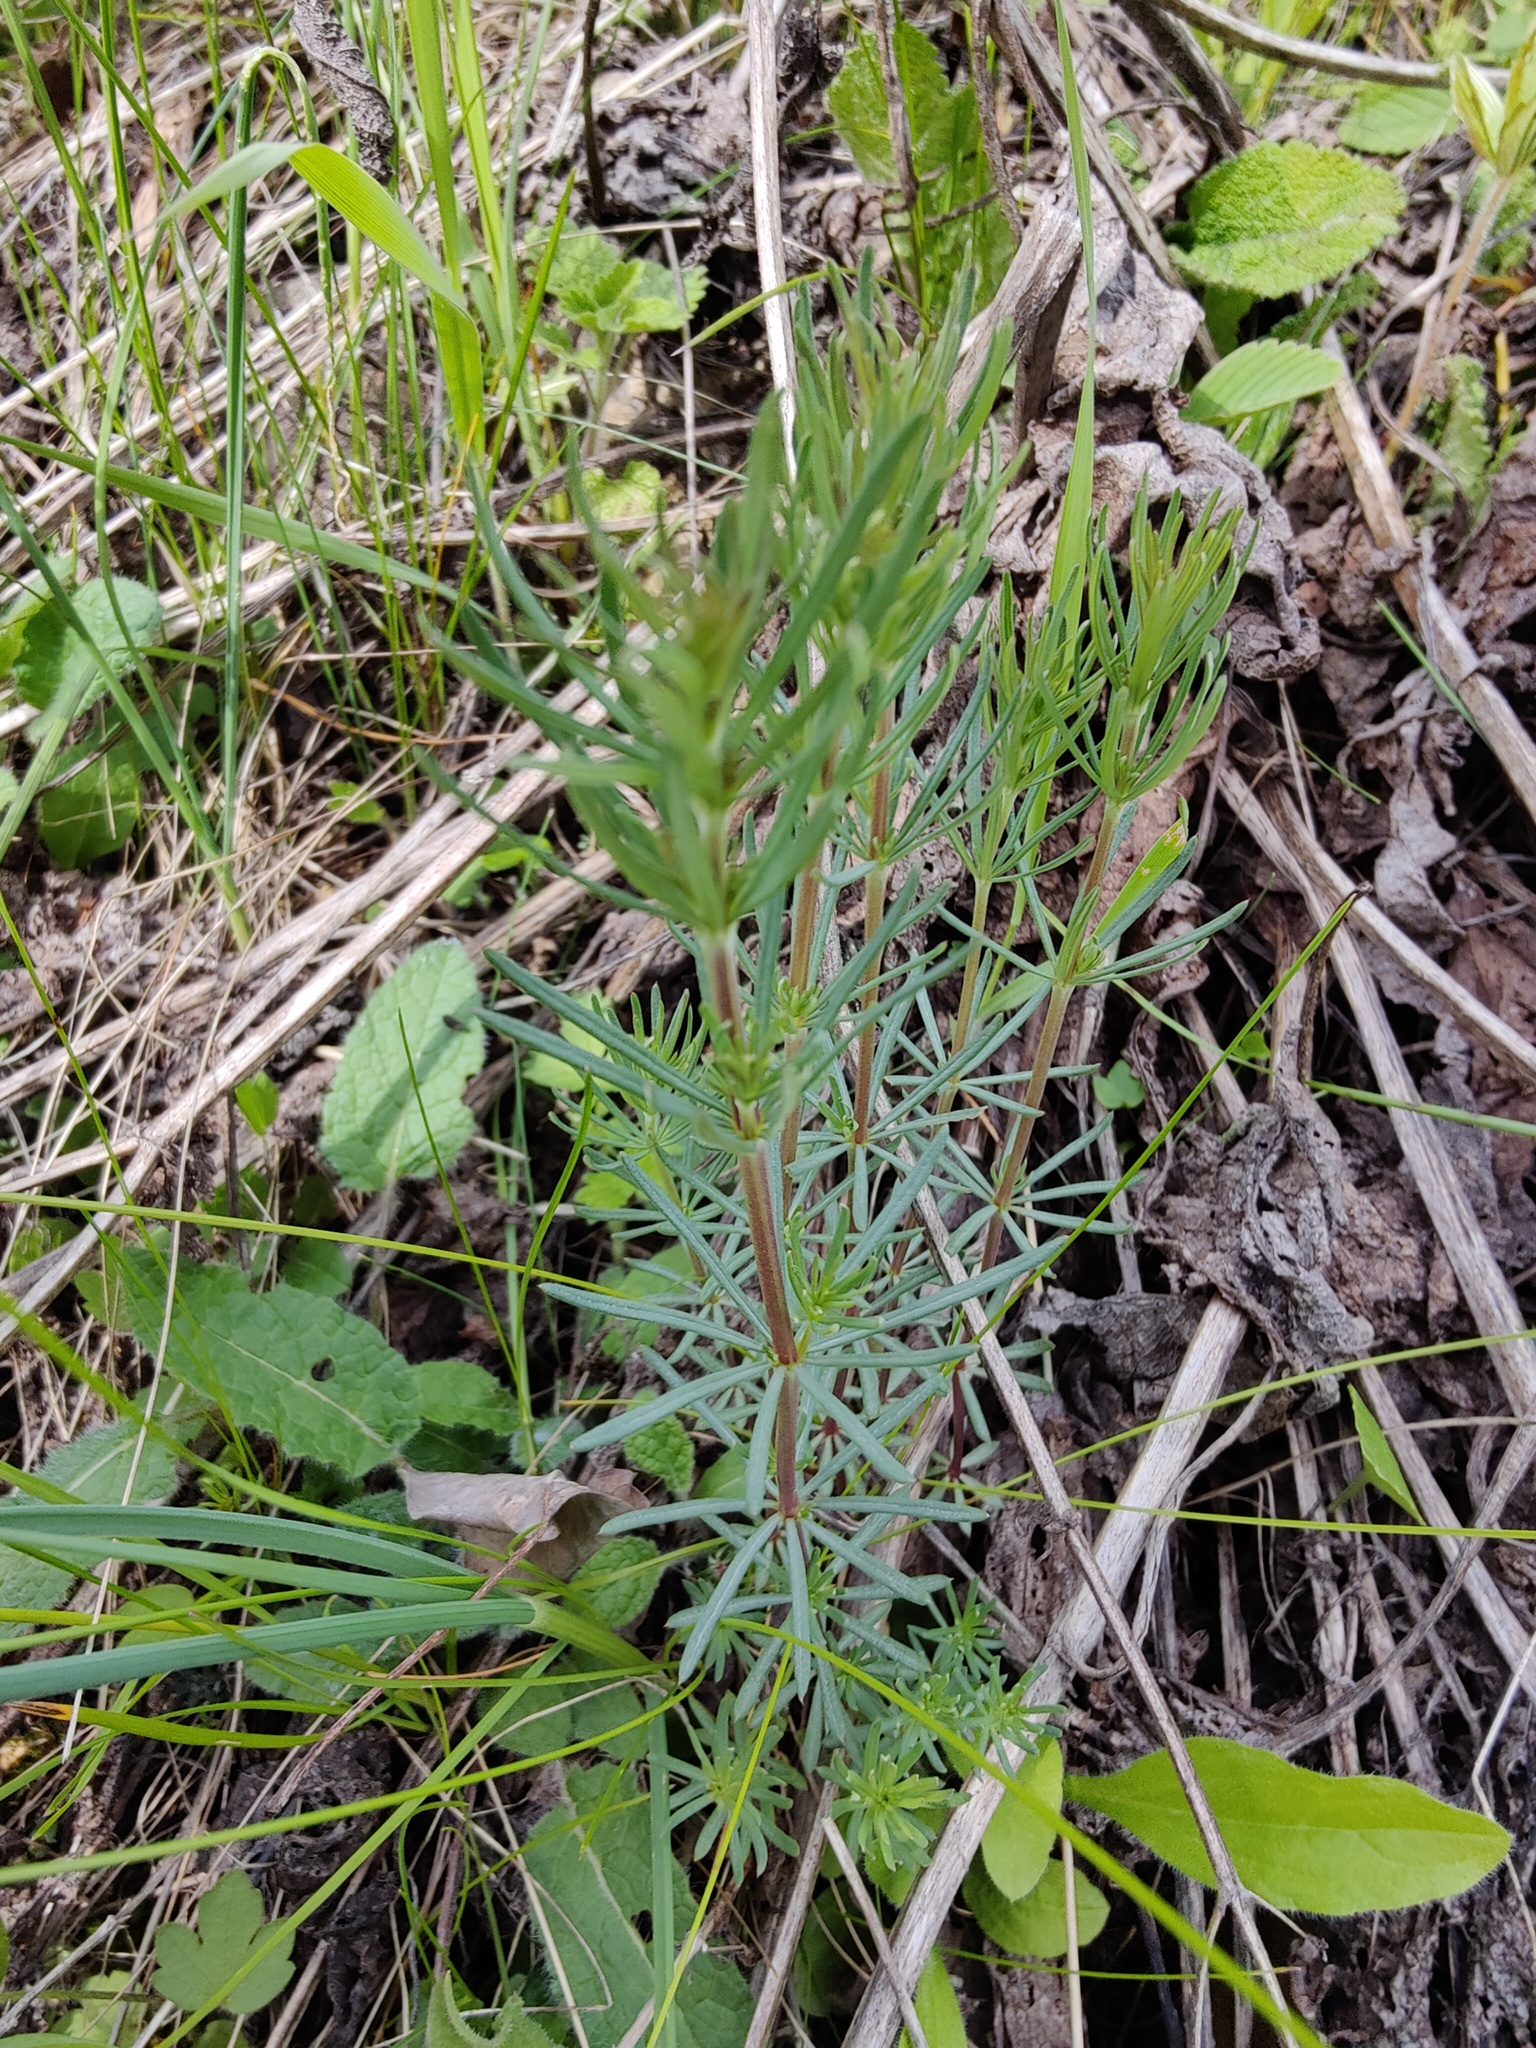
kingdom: Plantae
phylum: Tracheophyta
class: Magnoliopsida
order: Gentianales
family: Rubiaceae
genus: Galium
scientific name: Galium verum
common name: Lady's bedstraw
